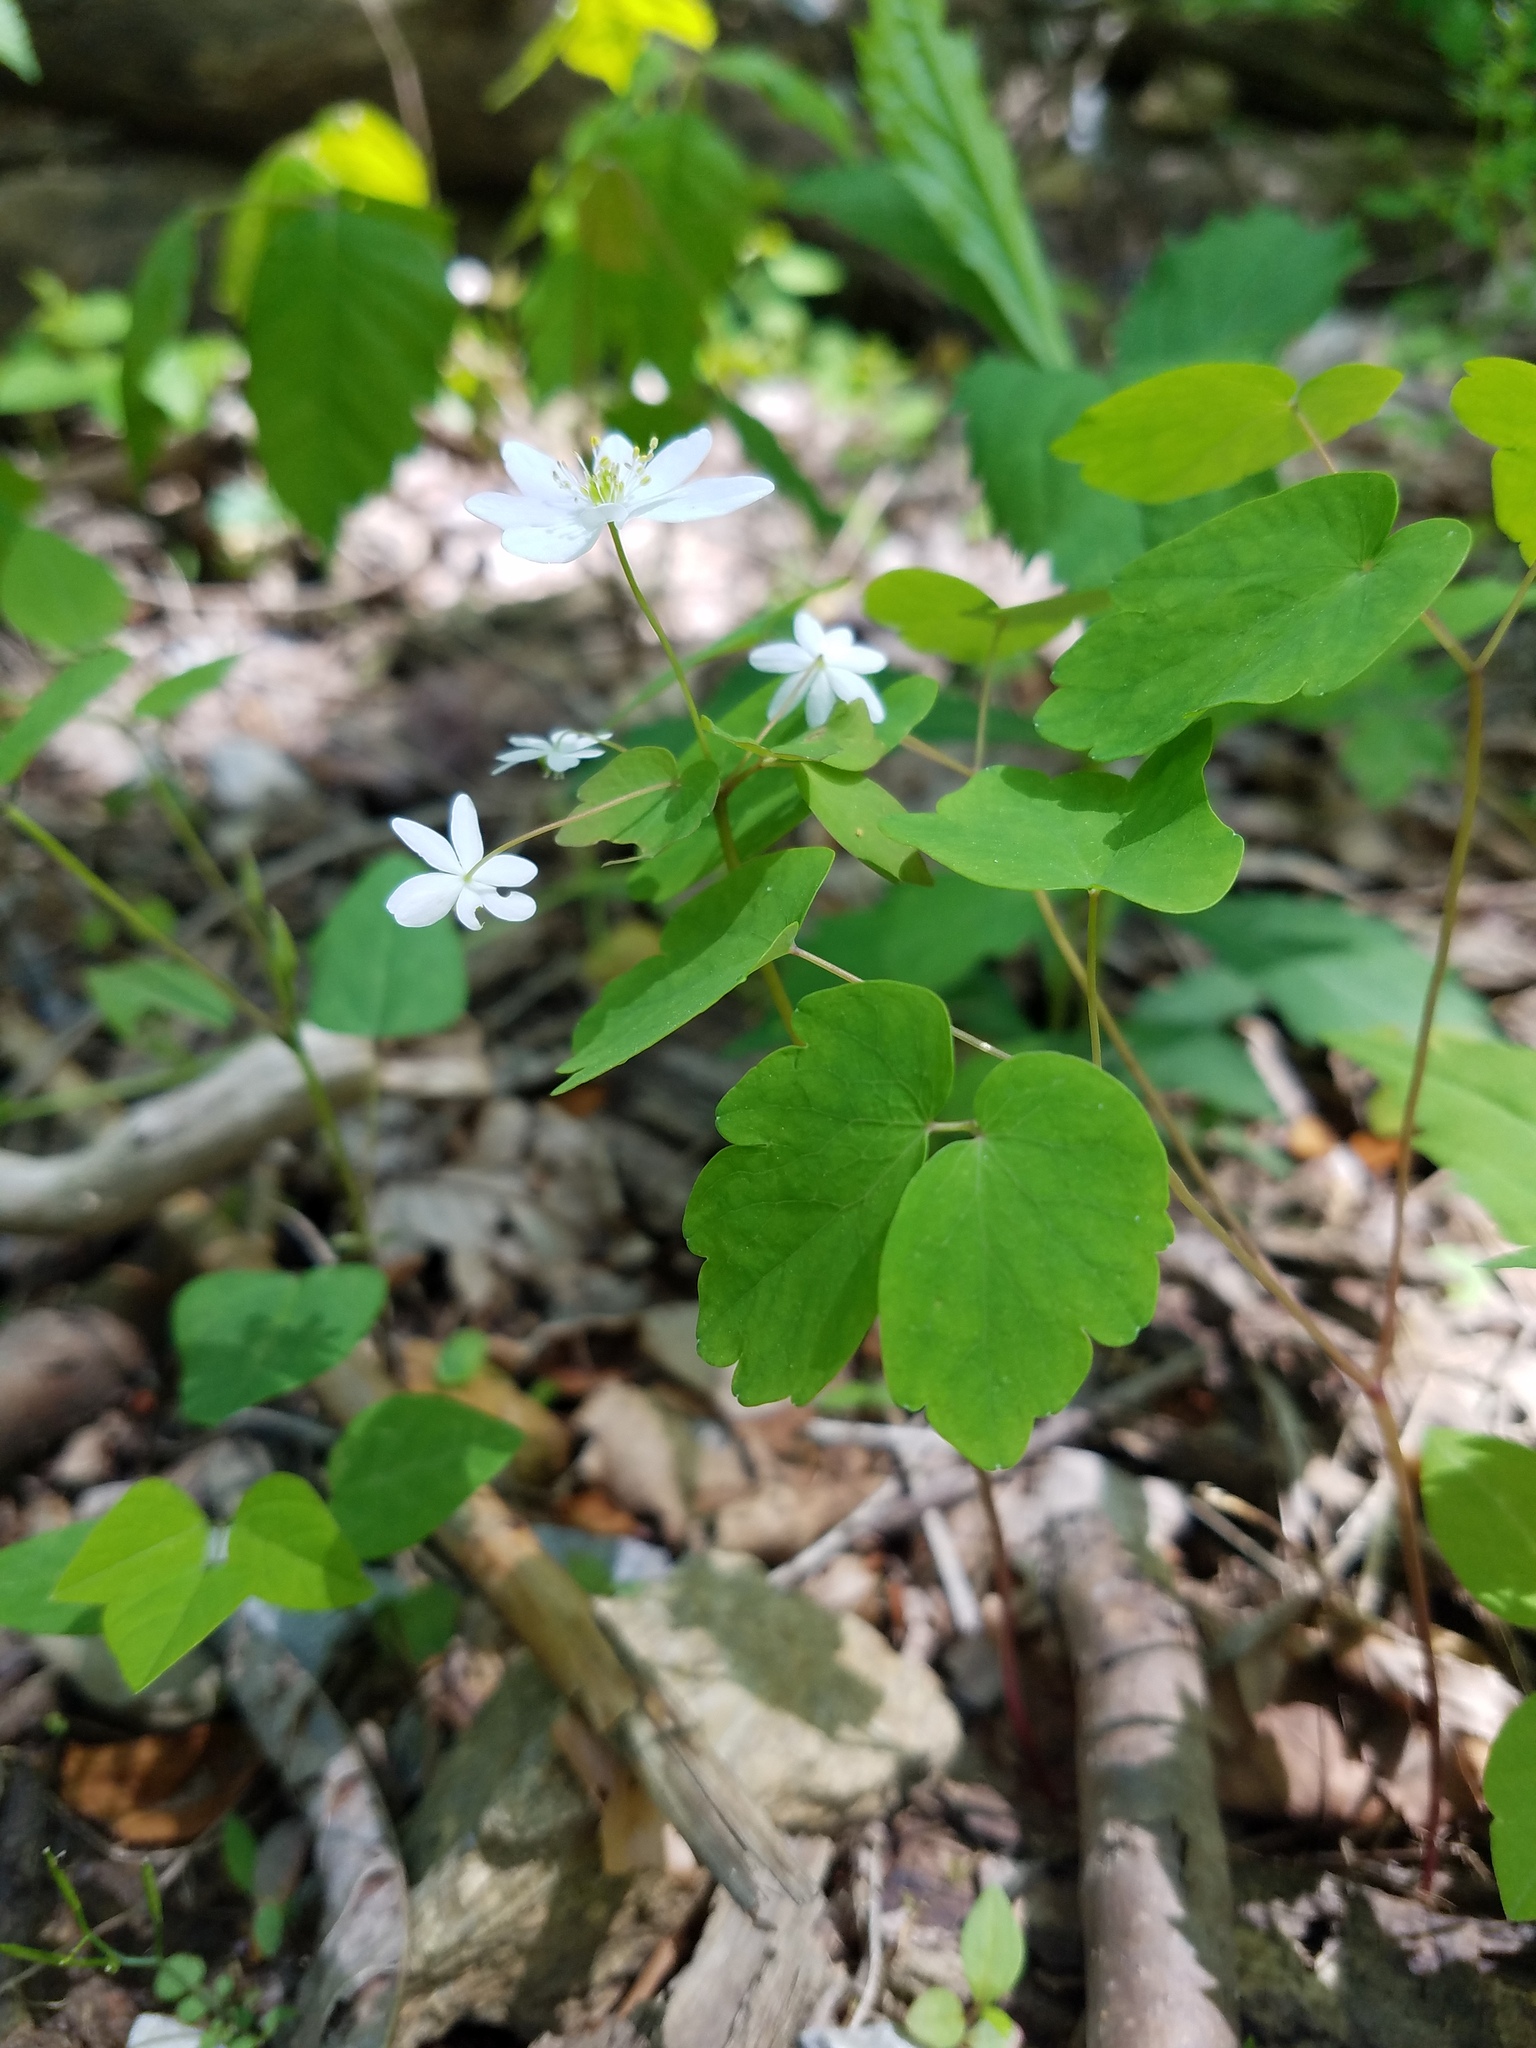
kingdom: Plantae
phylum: Tracheophyta
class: Magnoliopsida
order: Ranunculales
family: Ranunculaceae
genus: Thalictrum
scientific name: Thalictrum thalictroides
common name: Rue-anemone
